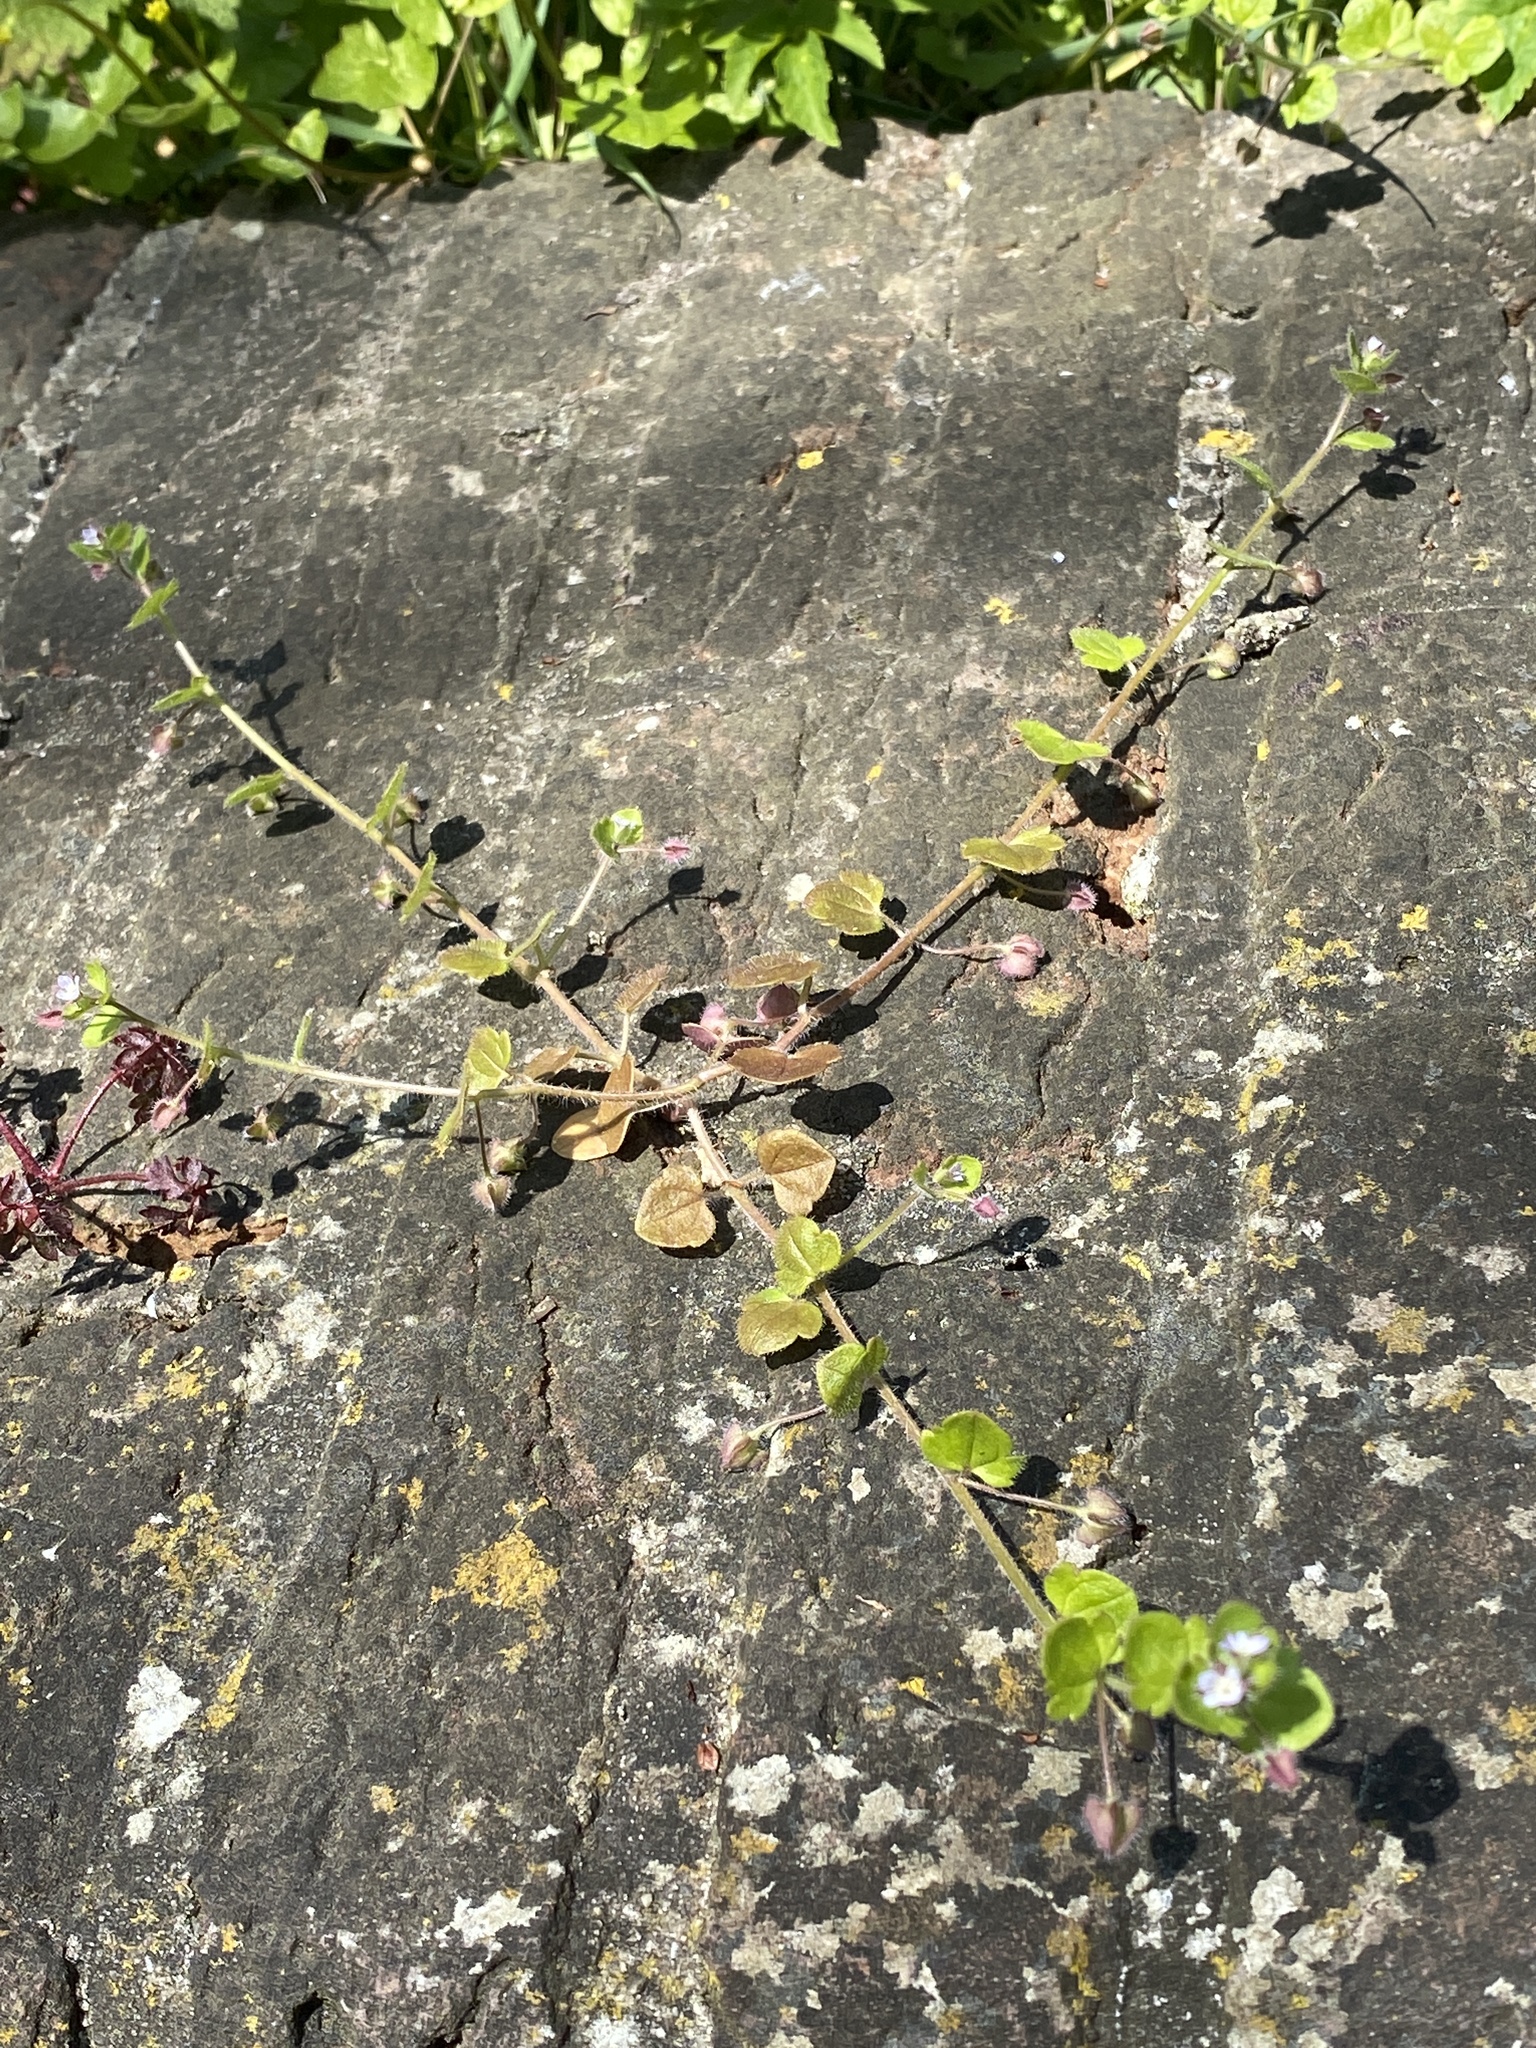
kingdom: Plantae
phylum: Tracheophyta
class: Magnoliopsida
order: Lamiales
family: Plantaginaceae
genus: Veronica
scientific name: Veronica hederifolia
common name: Ivy-leaved speedwell
